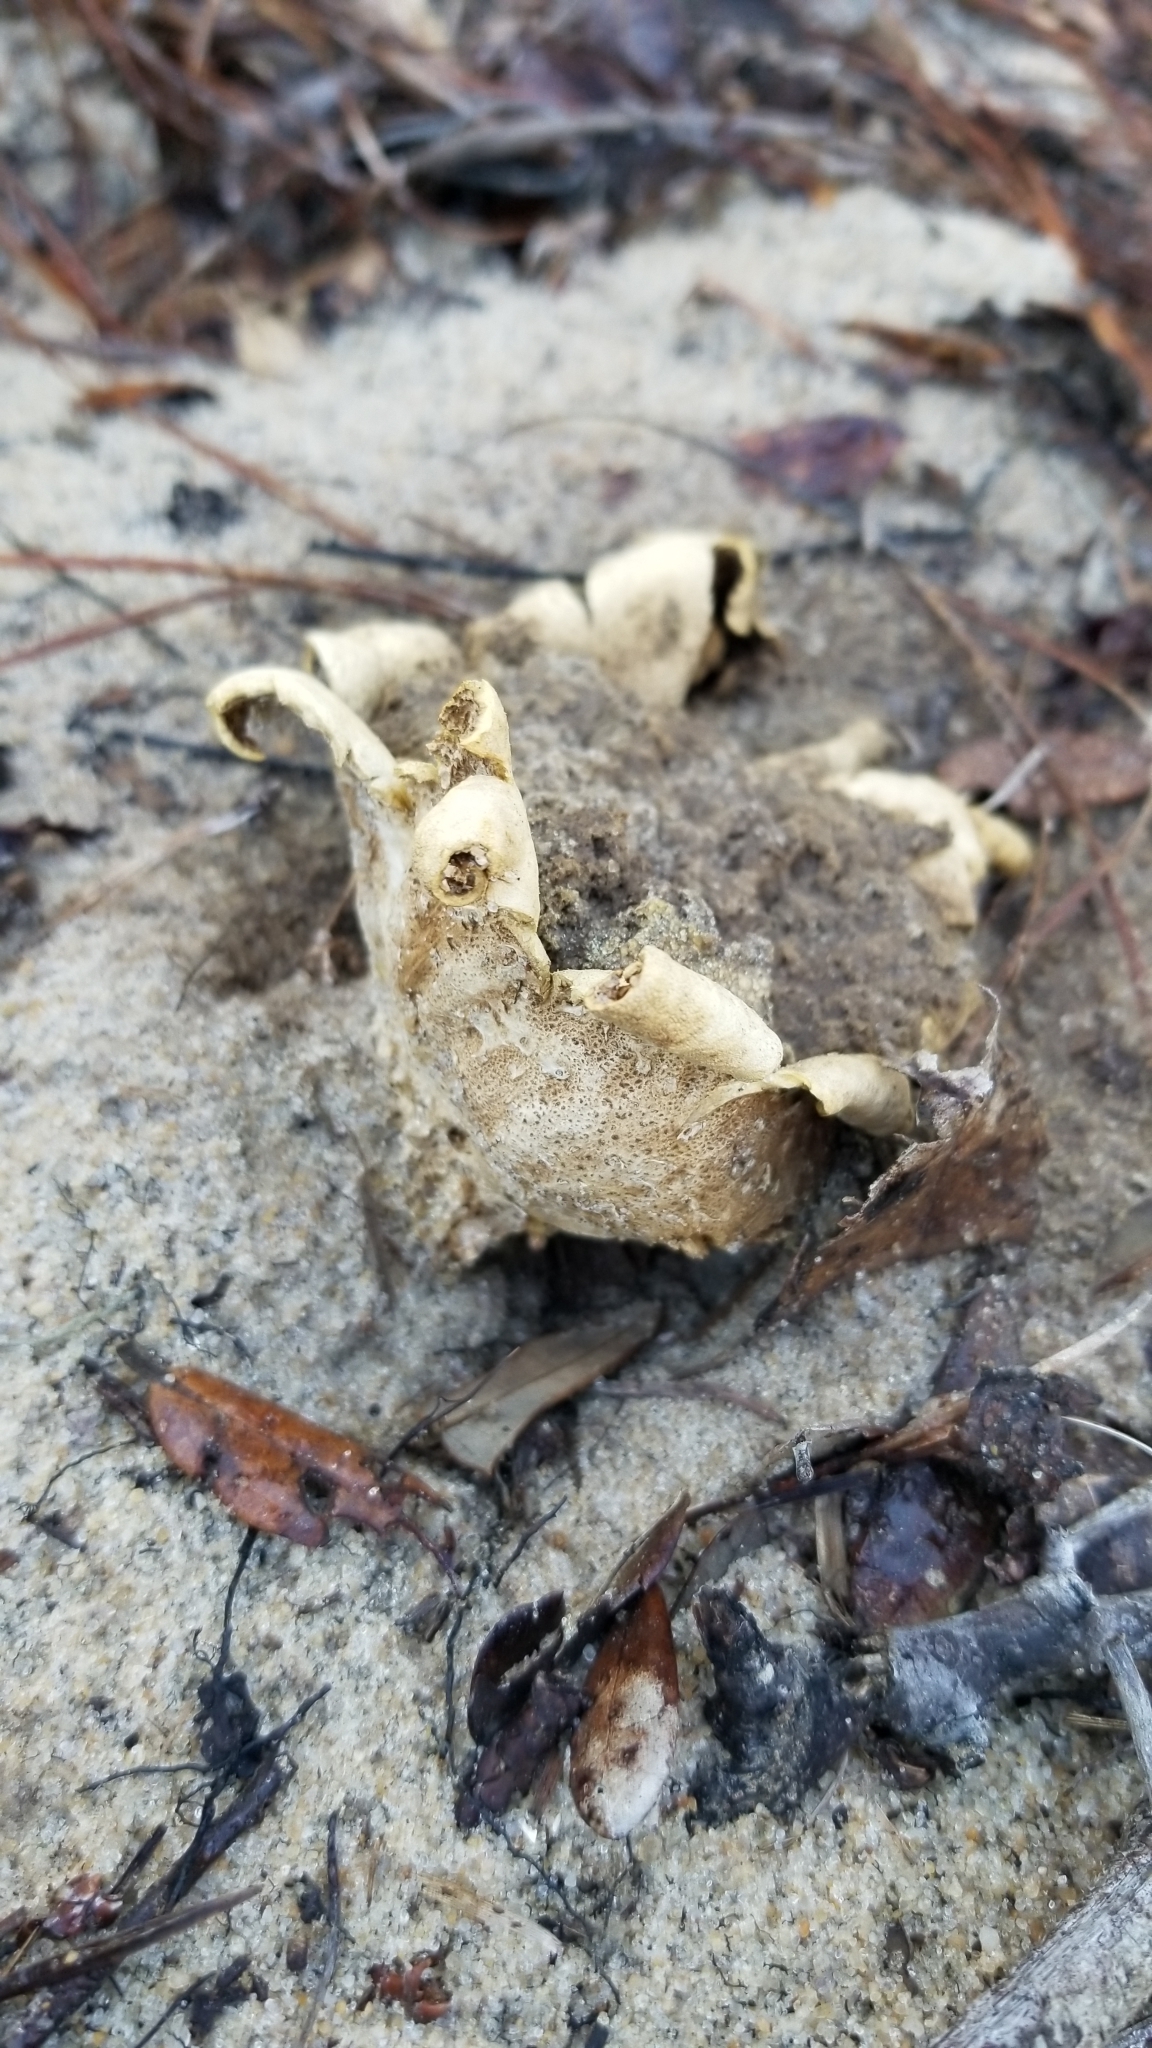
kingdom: Fungi
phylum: Basidiomycota
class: Agaricomycetes
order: Boletales
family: Sclerodermataceae
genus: Scleroderma
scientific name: Scleroderma polyrhizum
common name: Many-rooted earthball
